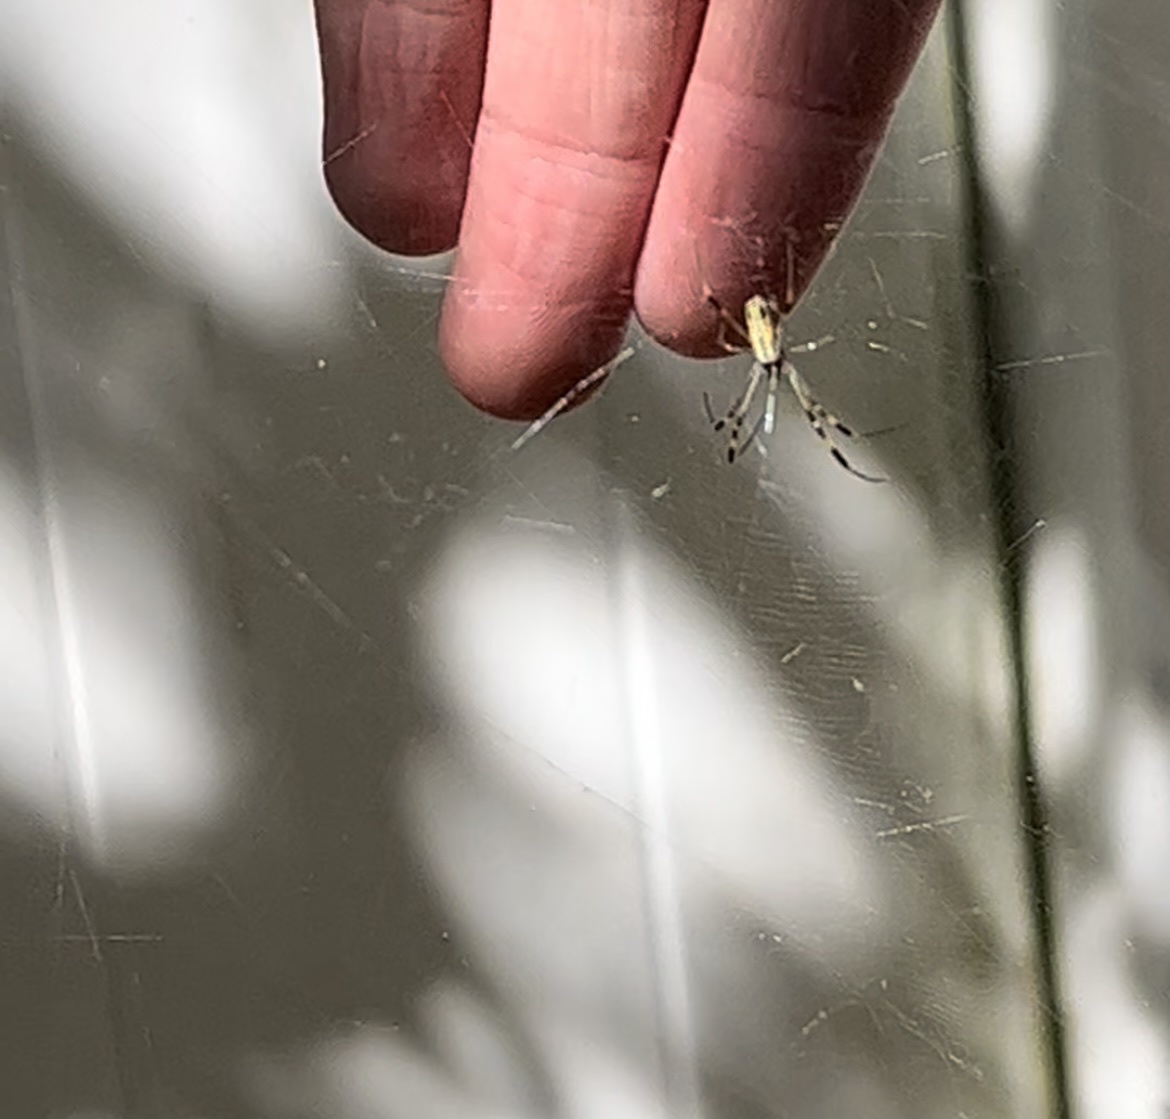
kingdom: Animalia
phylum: Arthropoda
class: Arachnida
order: Araneae
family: Araneidae
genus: Trichonephila
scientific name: Trichonephila clavipes
